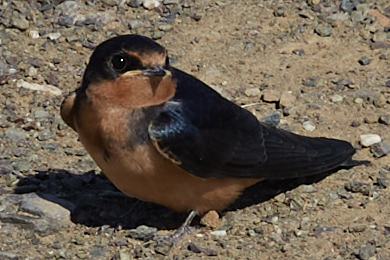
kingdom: Animalia
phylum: Chordata
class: Aves
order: Passeriformes
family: Hirundinidae
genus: Hirundo
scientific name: Hirundo rustica
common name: Barn swallow
